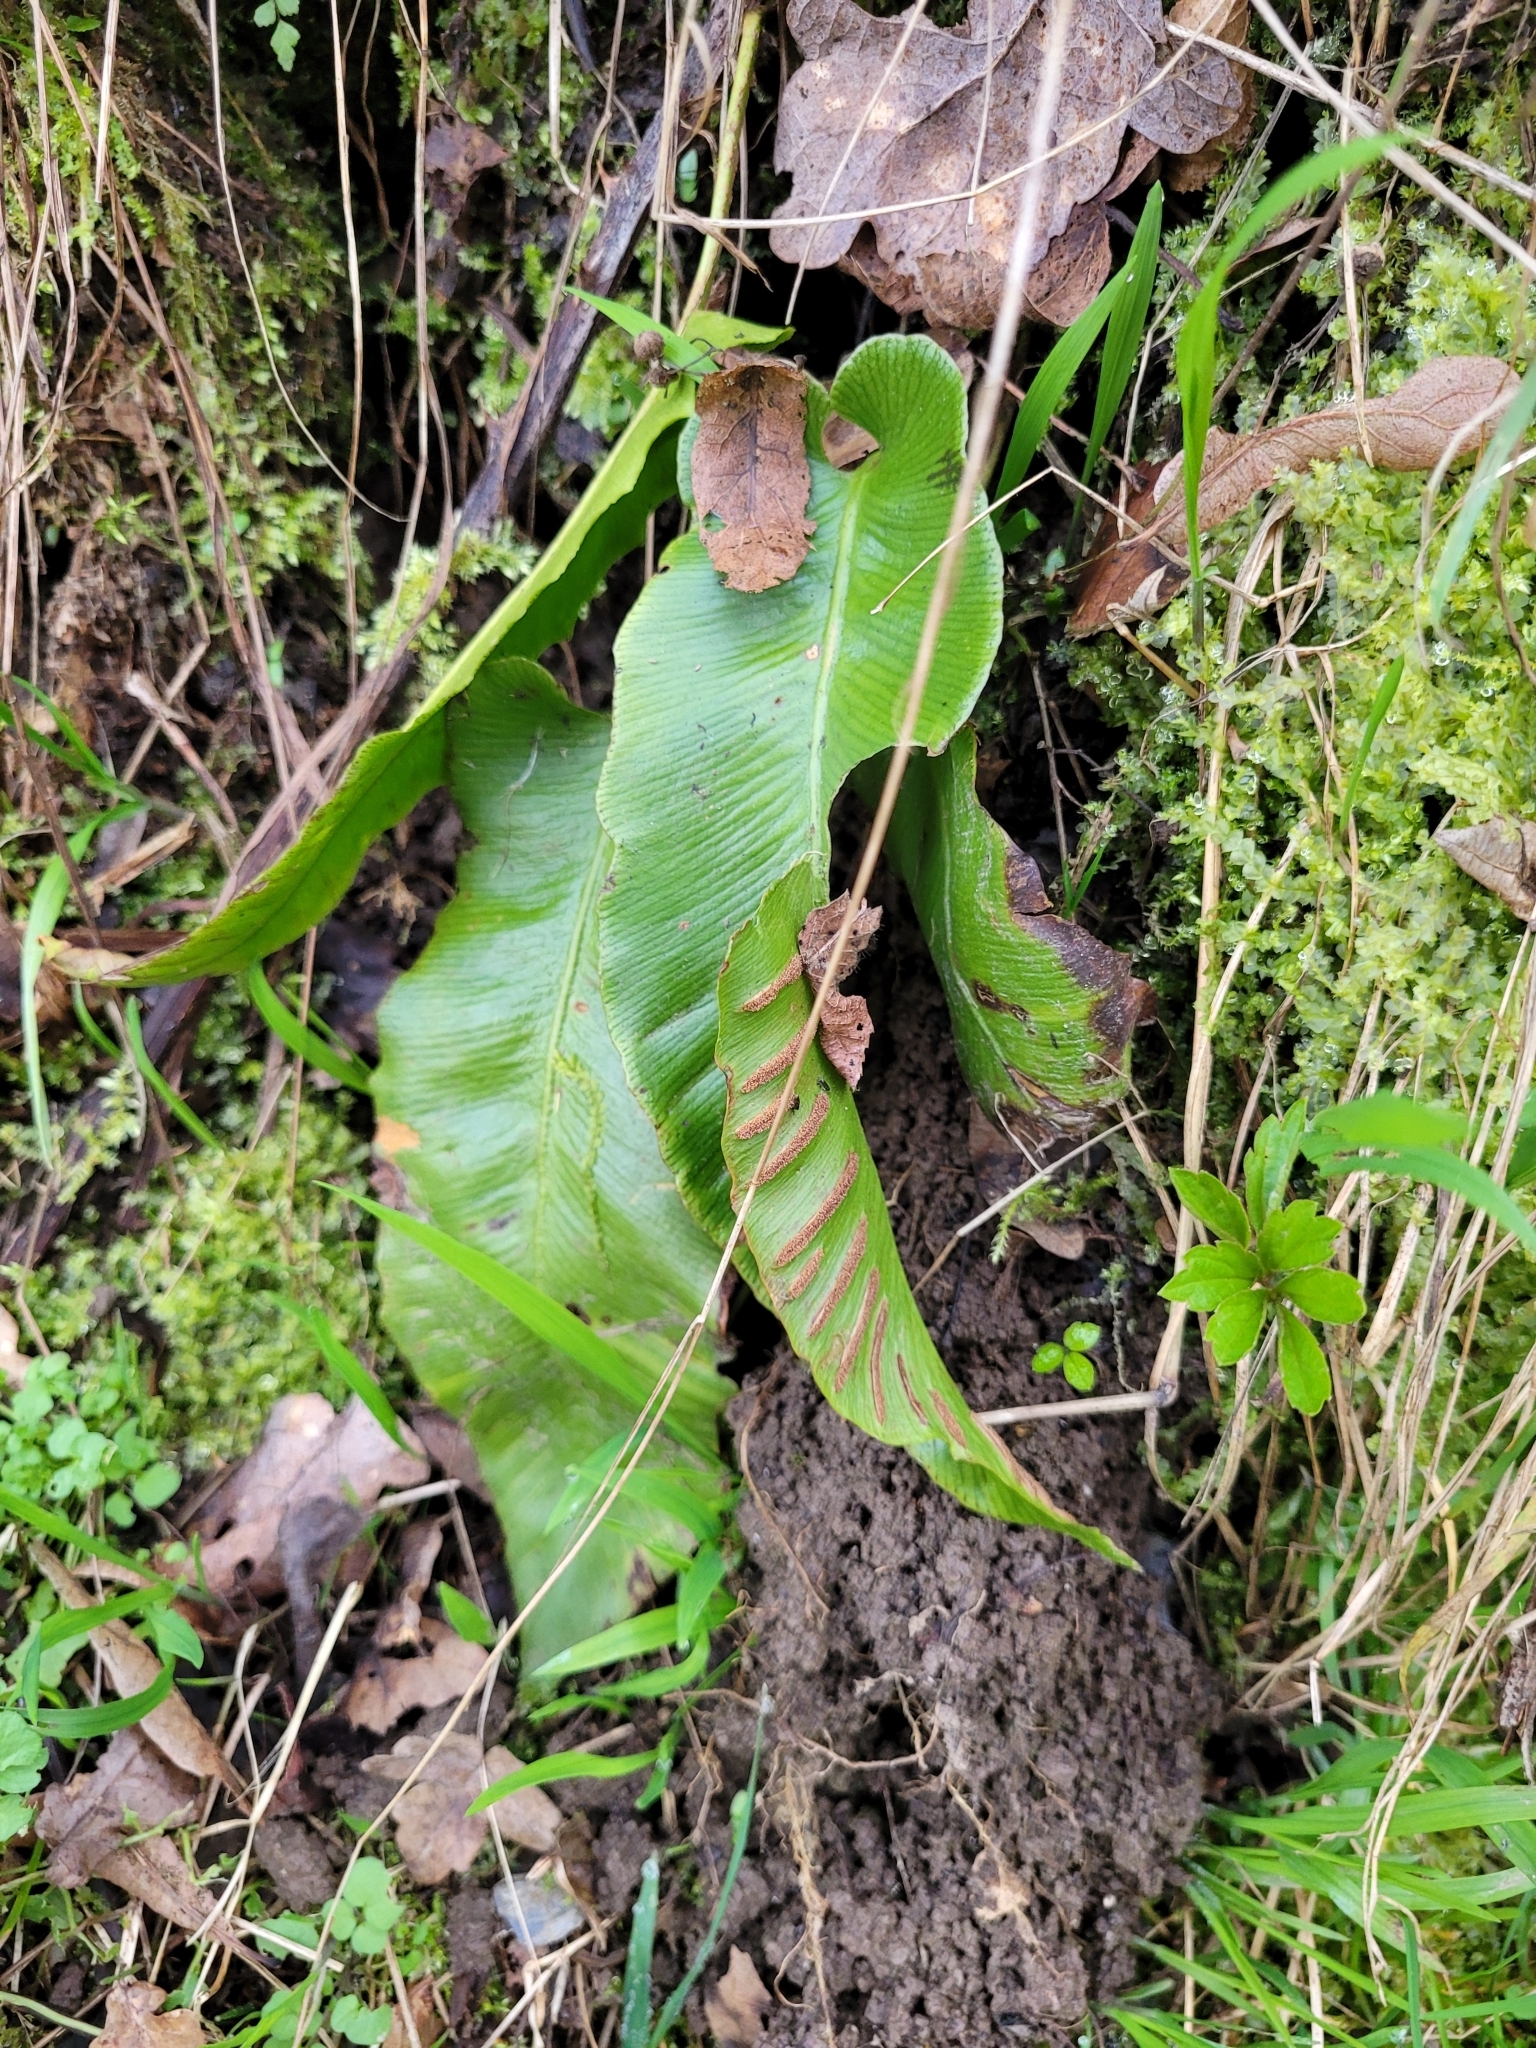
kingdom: Plantae
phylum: Tracheophyta
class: Polypodiopsida
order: Polypodiales
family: Aspleniaceae
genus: Asplenium
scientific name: Asplenium scolopendrium
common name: Hart's-tongue fern
